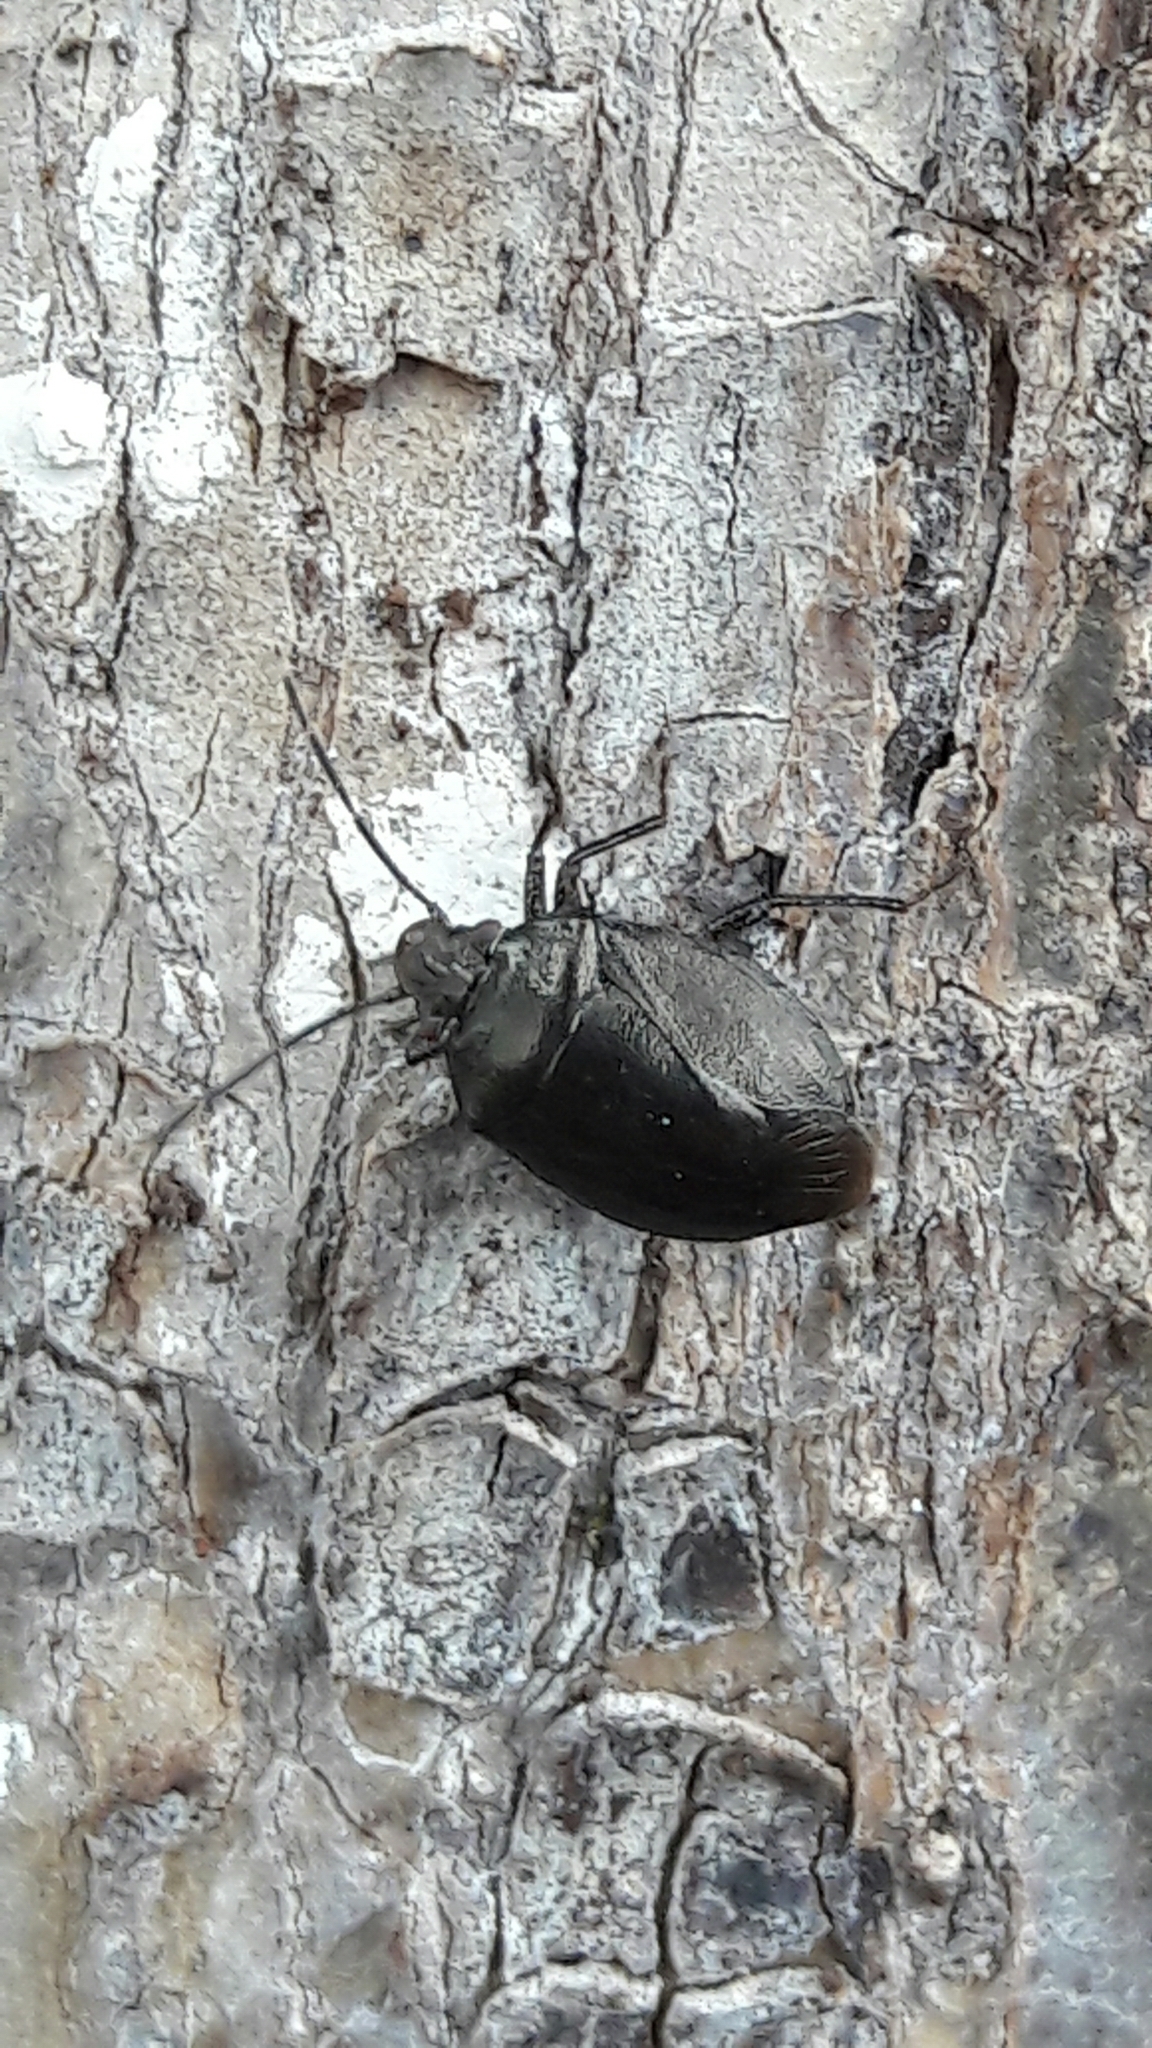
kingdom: Animalia
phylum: Arthropoda
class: Insecta
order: Hemiptera
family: Pentatomidae
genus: Antiteuchus
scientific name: Antiteuchus tripterus
